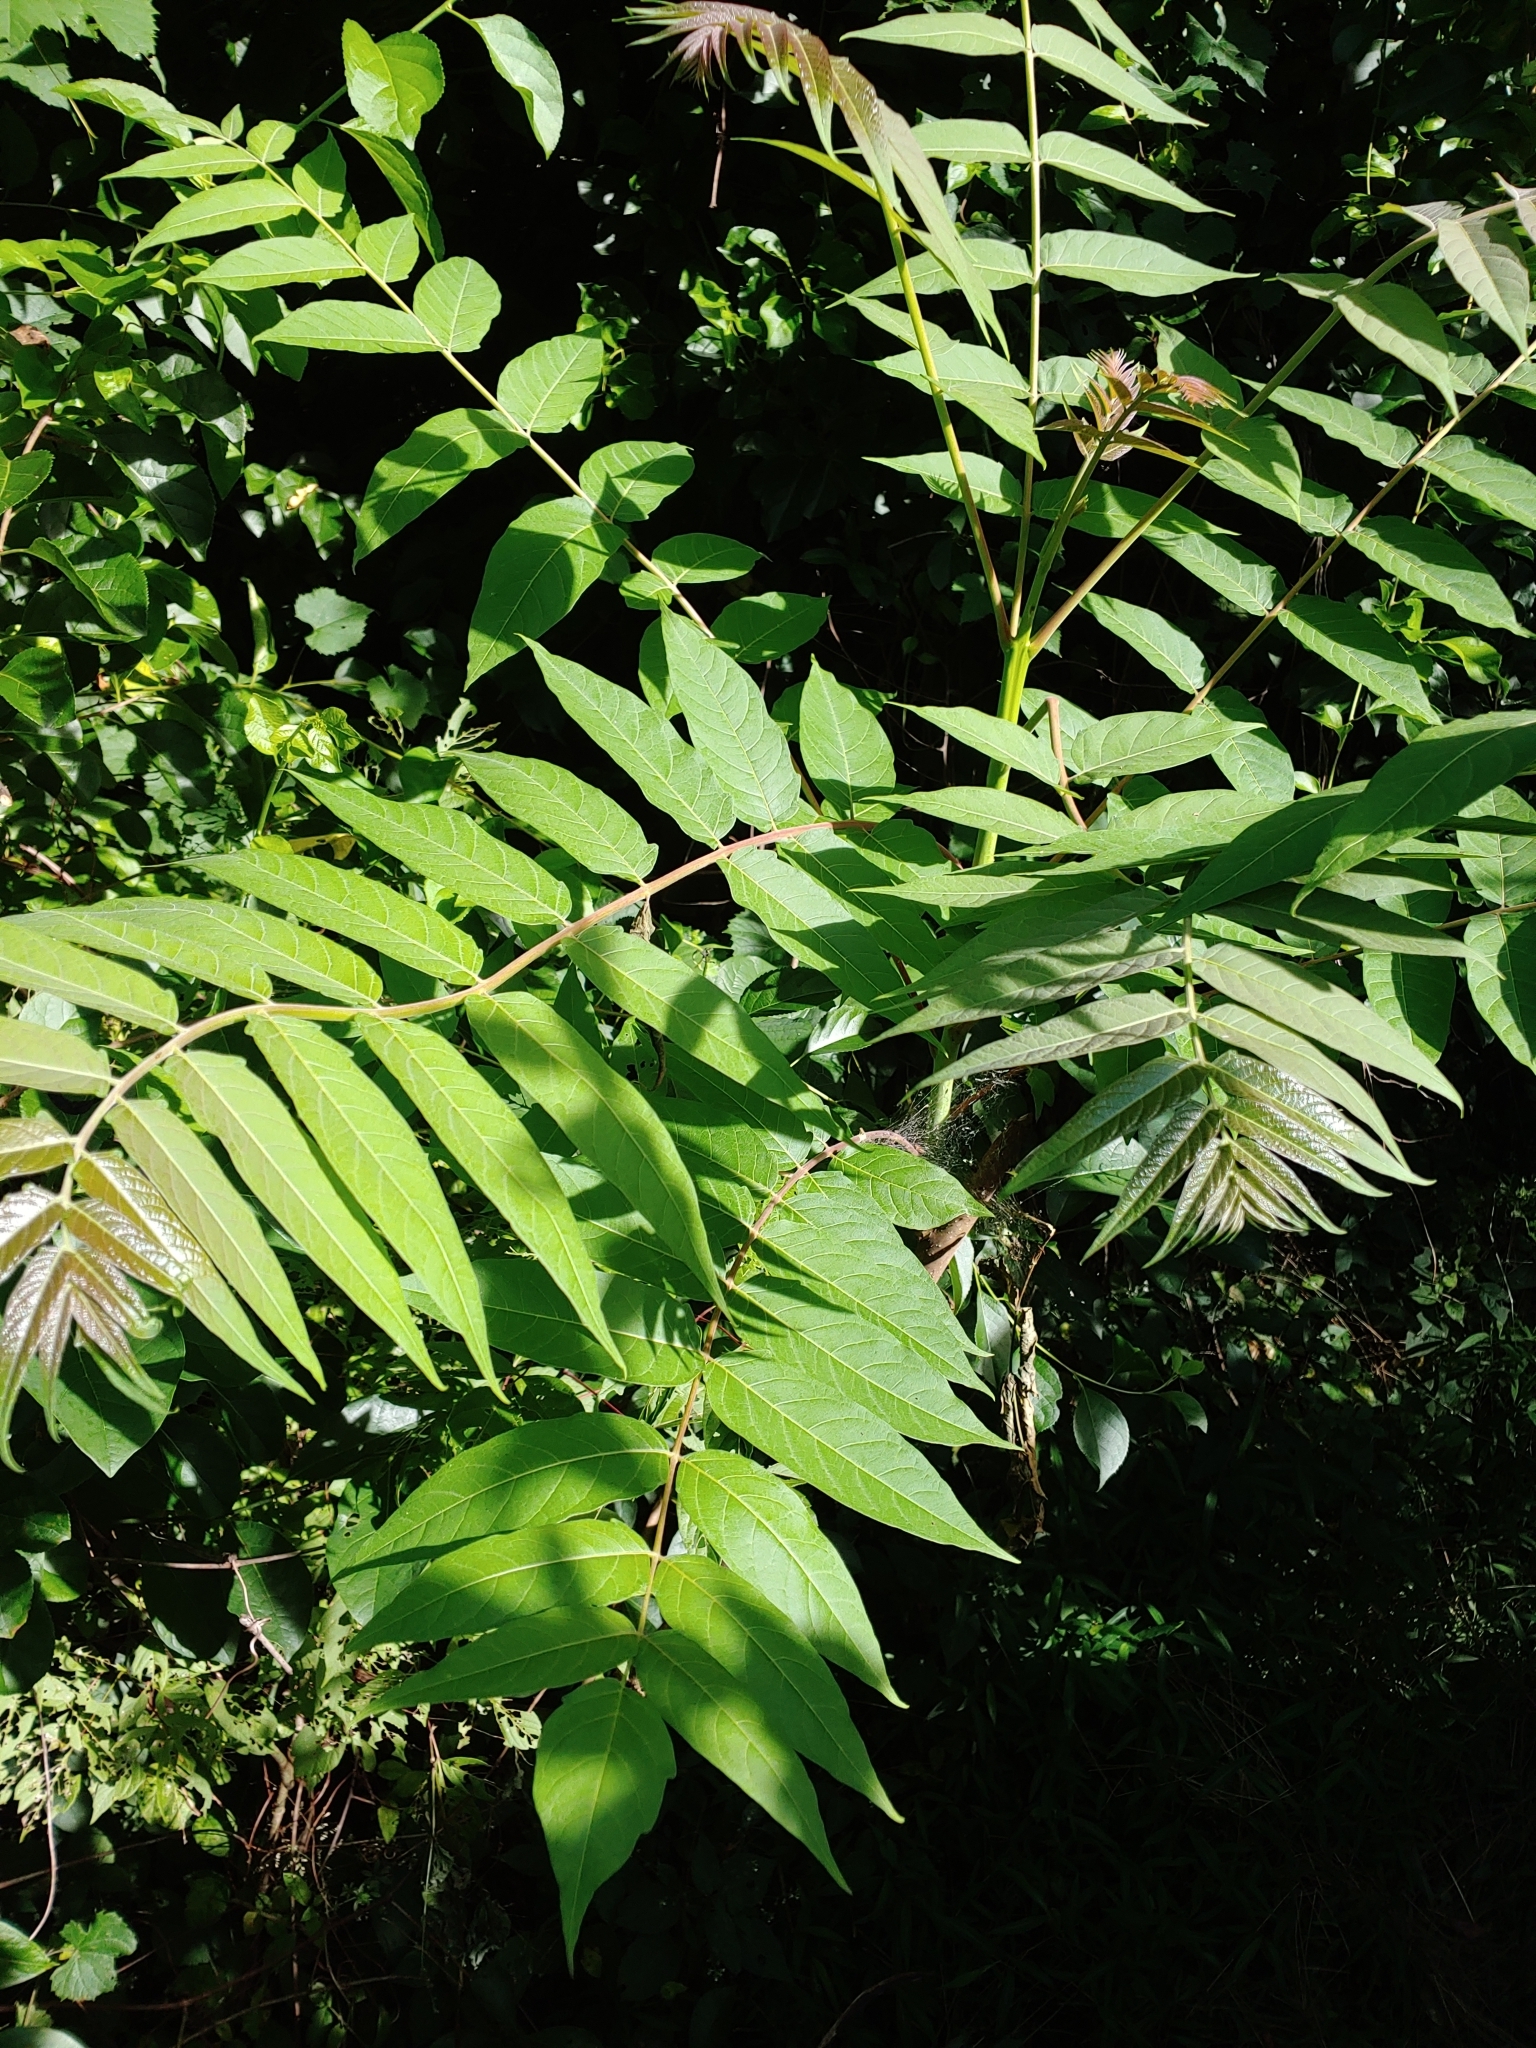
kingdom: Plantae
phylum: Tracheophyta
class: Magnoliopsida
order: Sapindales
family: Simaroubaceae
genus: Ailanthus
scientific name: Ailanthus altissima
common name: Tree-of-heaven
